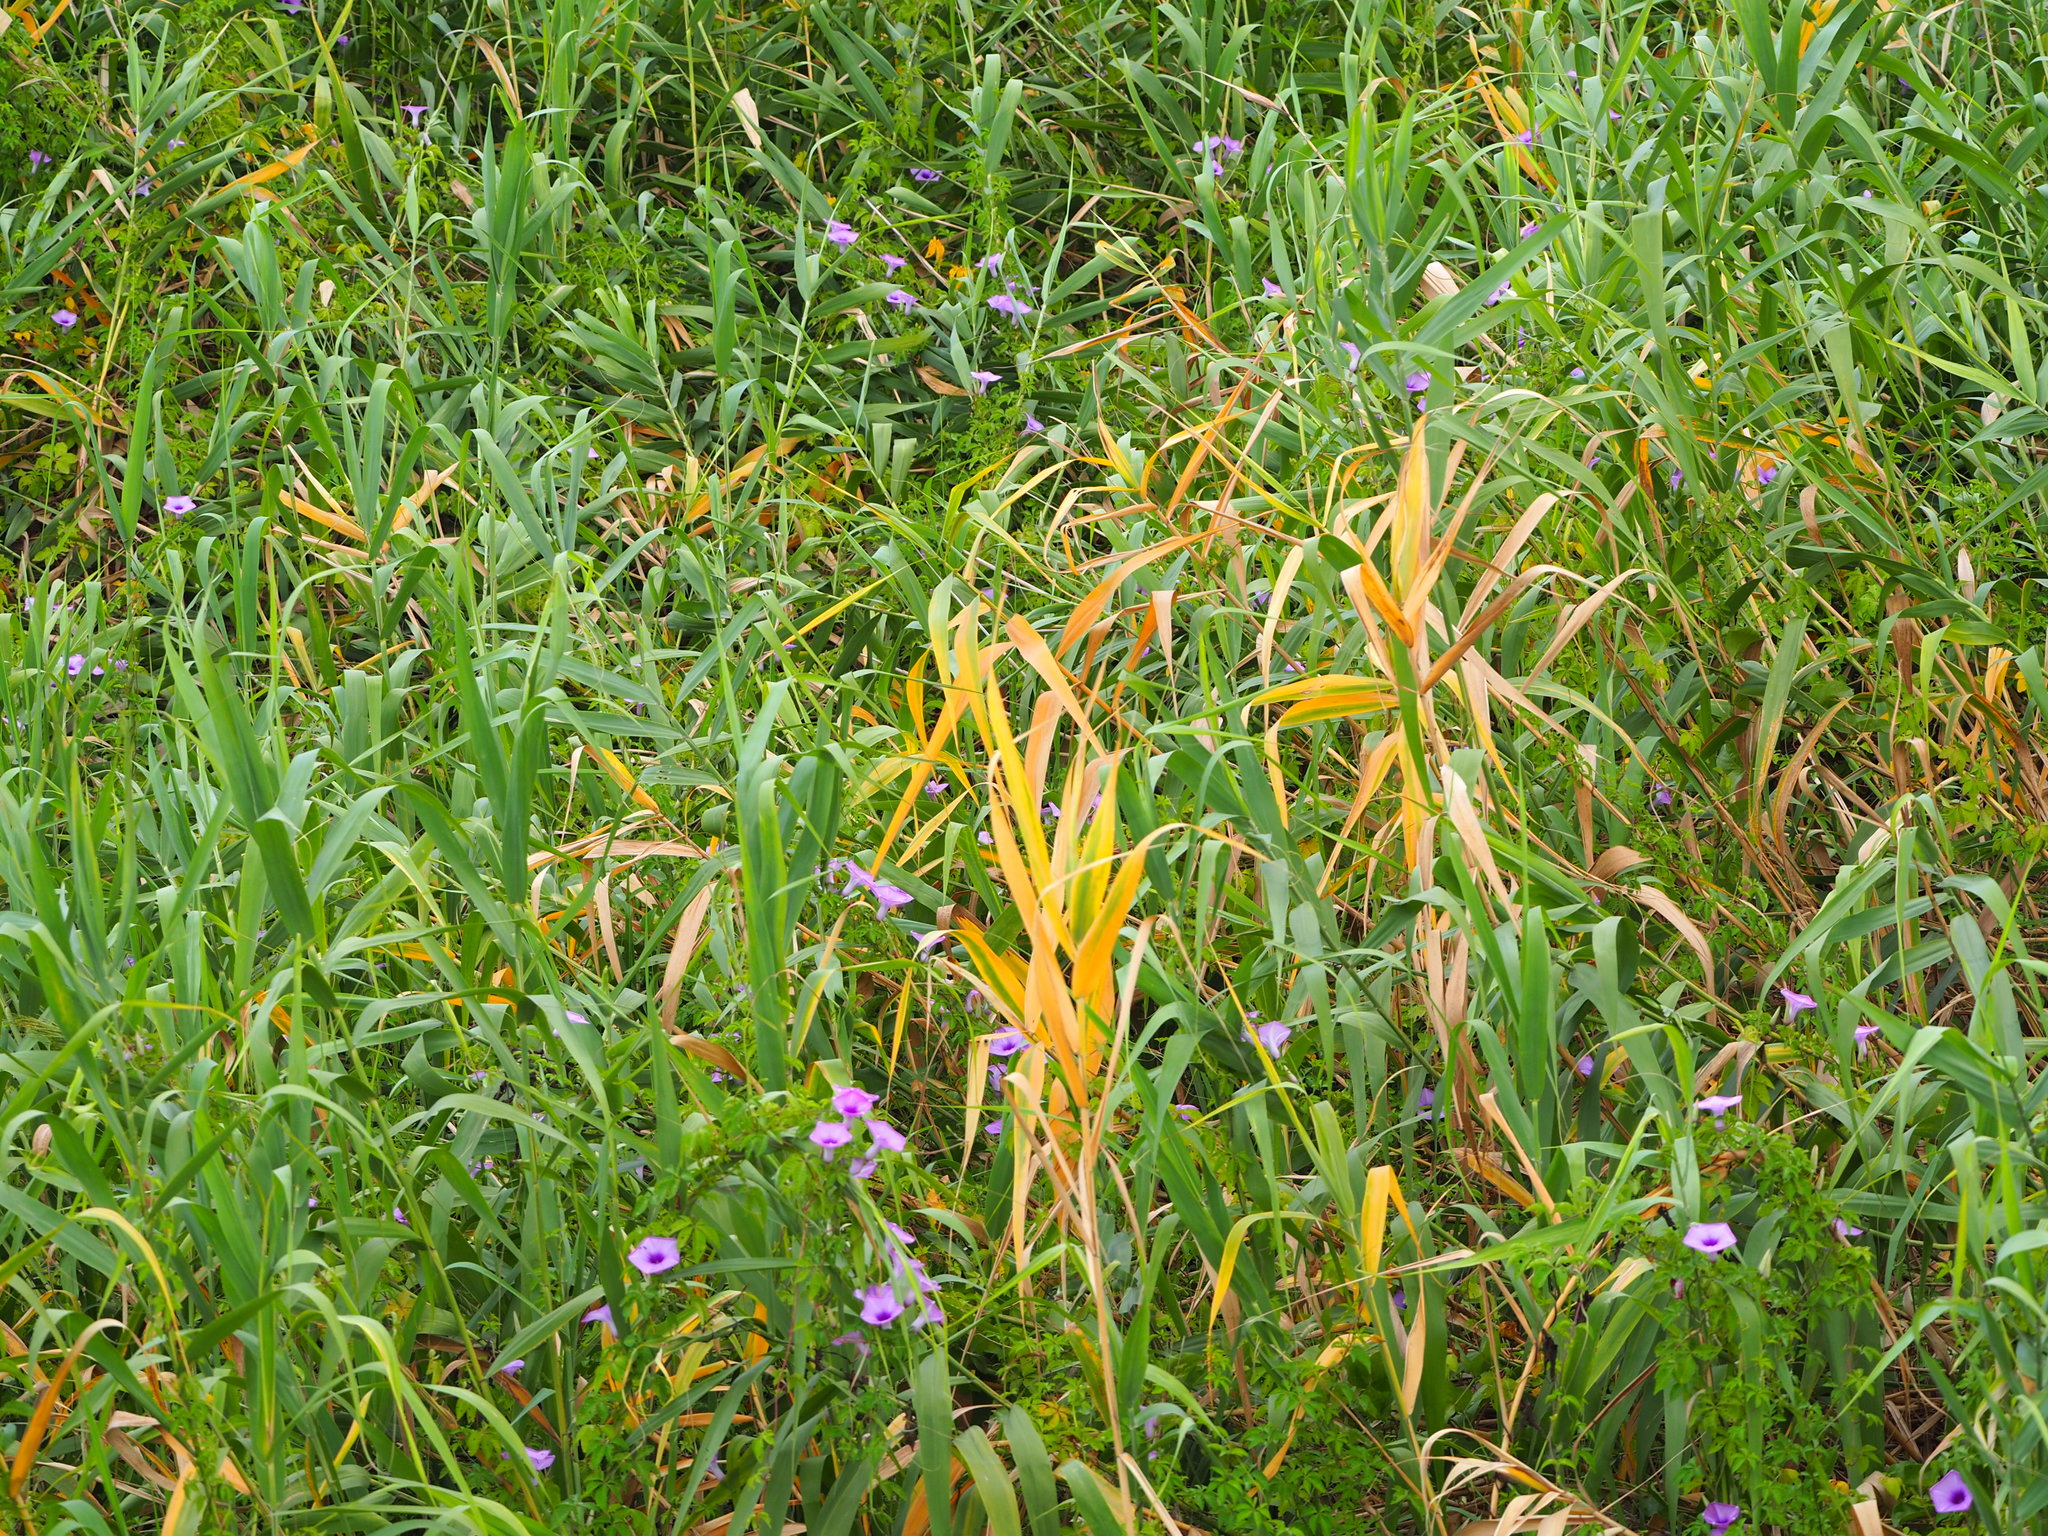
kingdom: Plantae
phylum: Tracheophyta
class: Liliopsida
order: Poales
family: Poaceae
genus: Phragmites
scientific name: Phragmites australis
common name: Common reed
